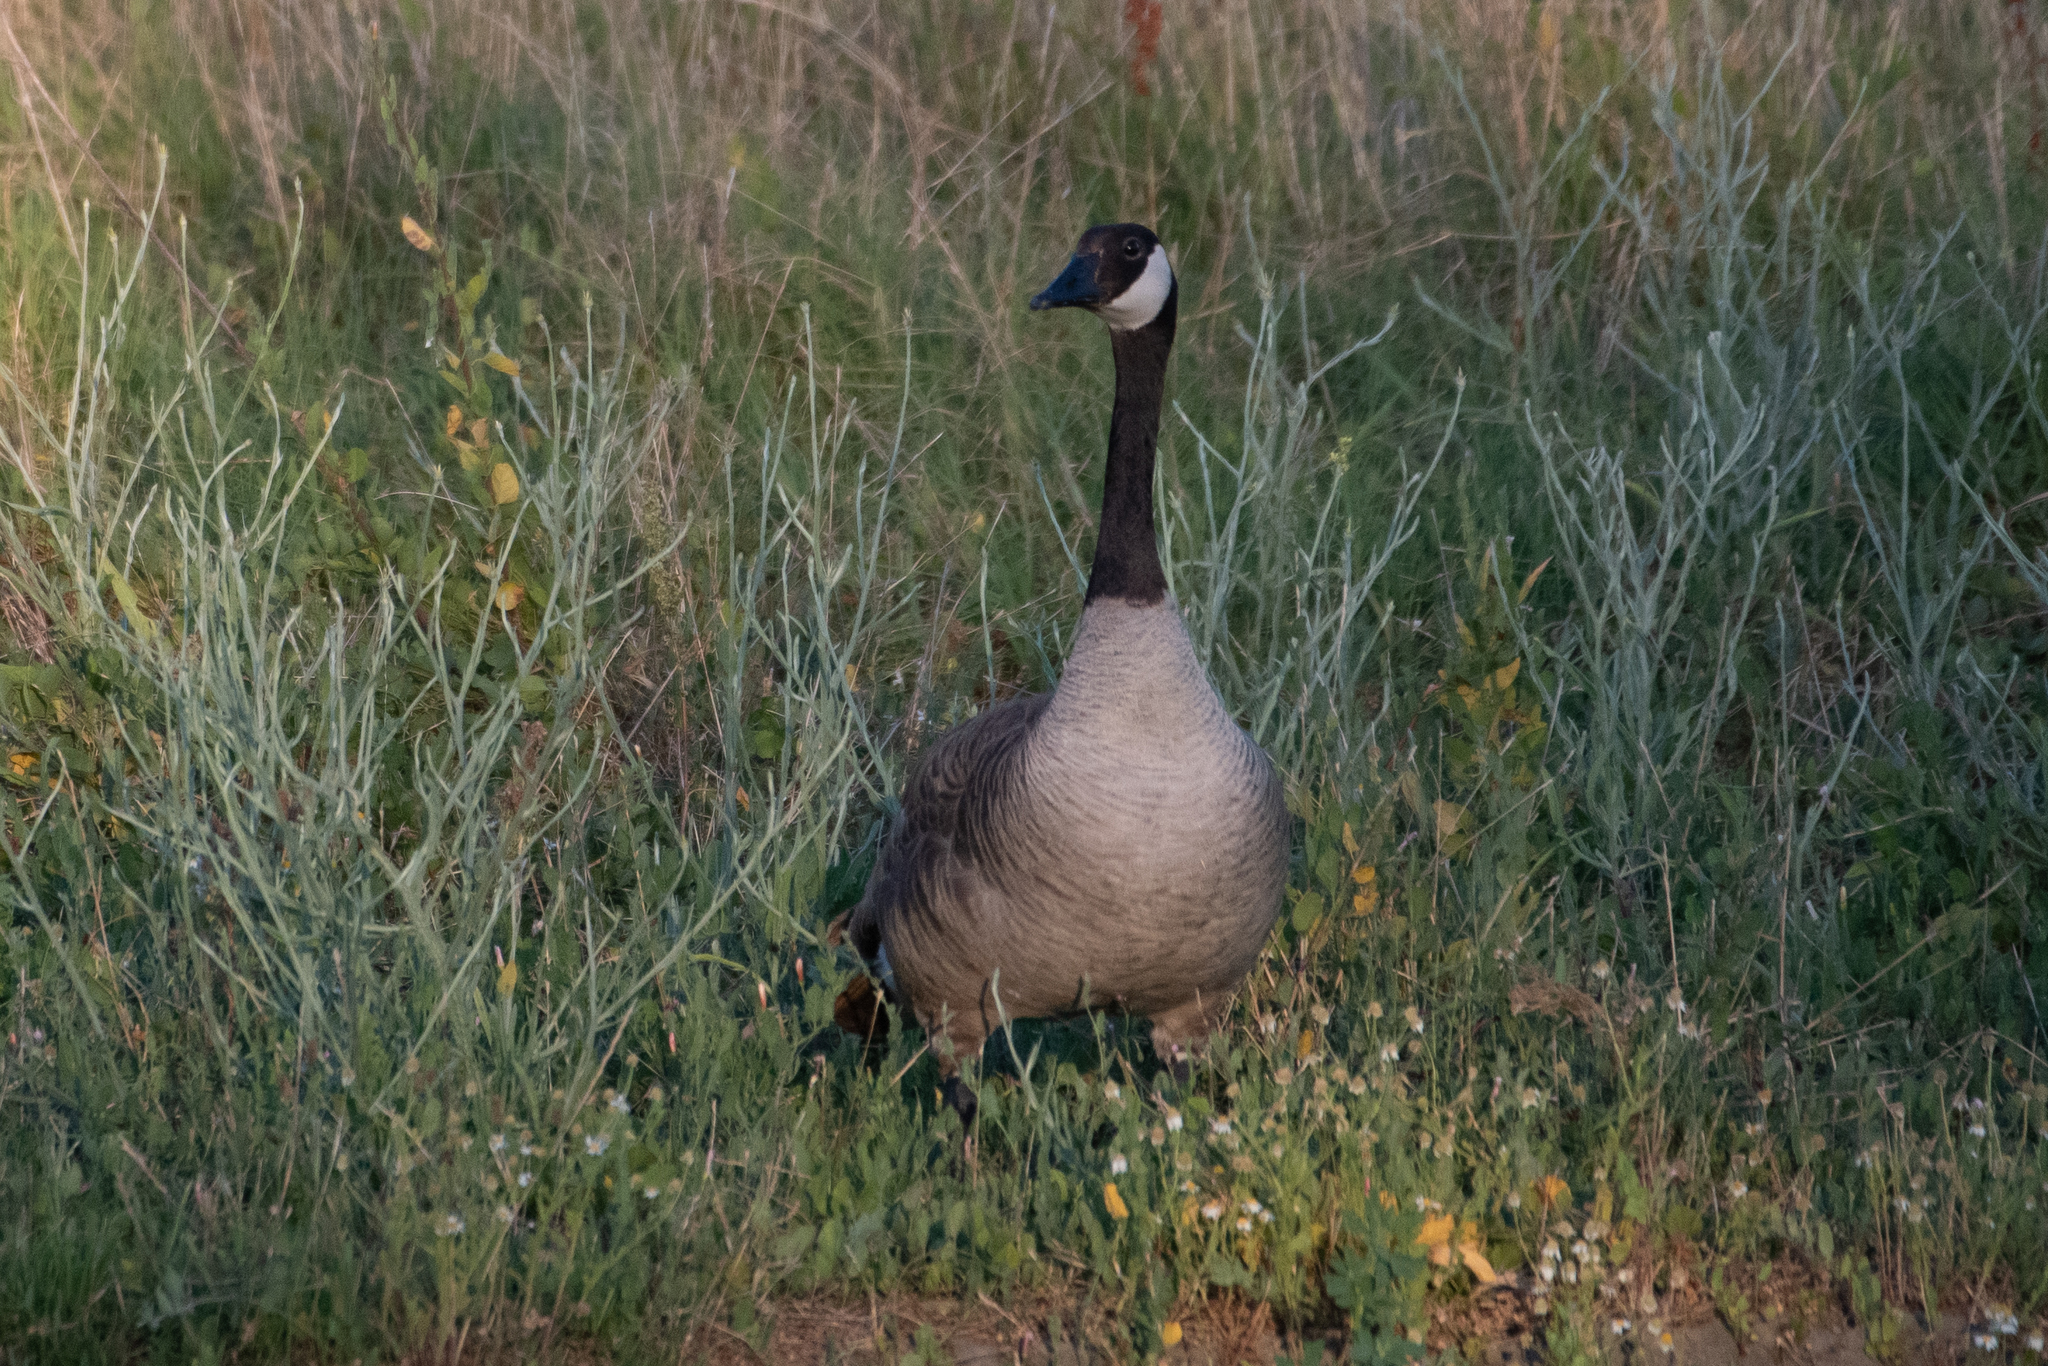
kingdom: Animalia
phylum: Chordata
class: Aves
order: Anseriformes
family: Anatidae
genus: Branta
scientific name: Branta canadensis
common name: Canada goose
